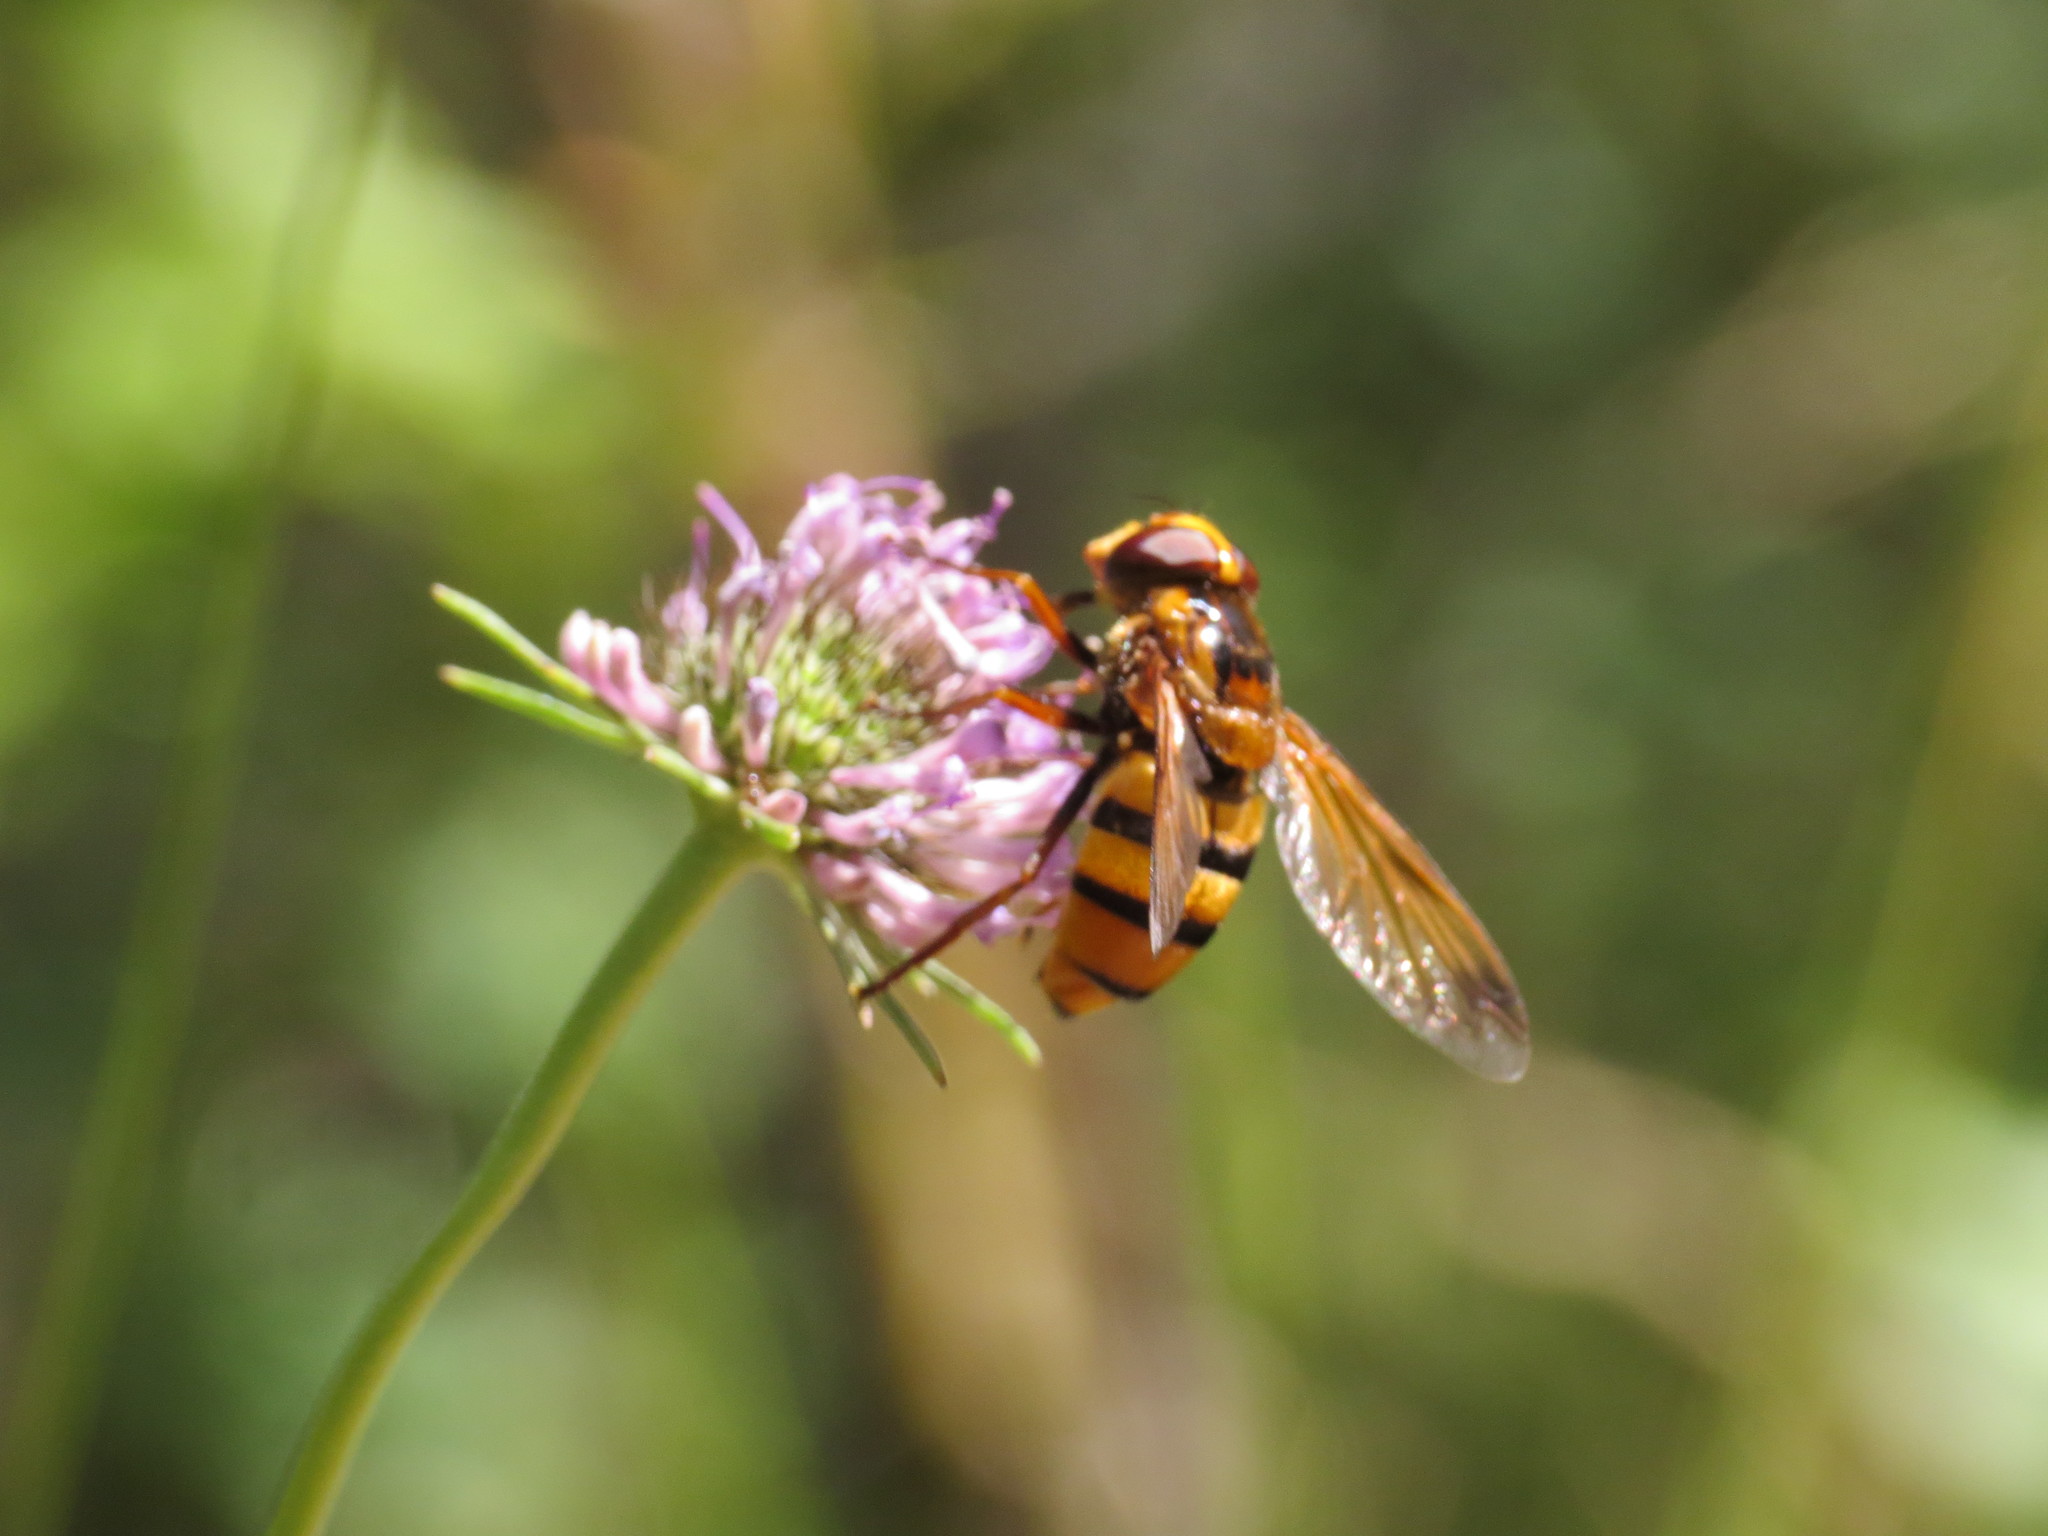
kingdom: Animalia
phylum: Arthropoda
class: Insecta
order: Diptera
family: Syrphidae
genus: Volucella
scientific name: Volucella inanis
